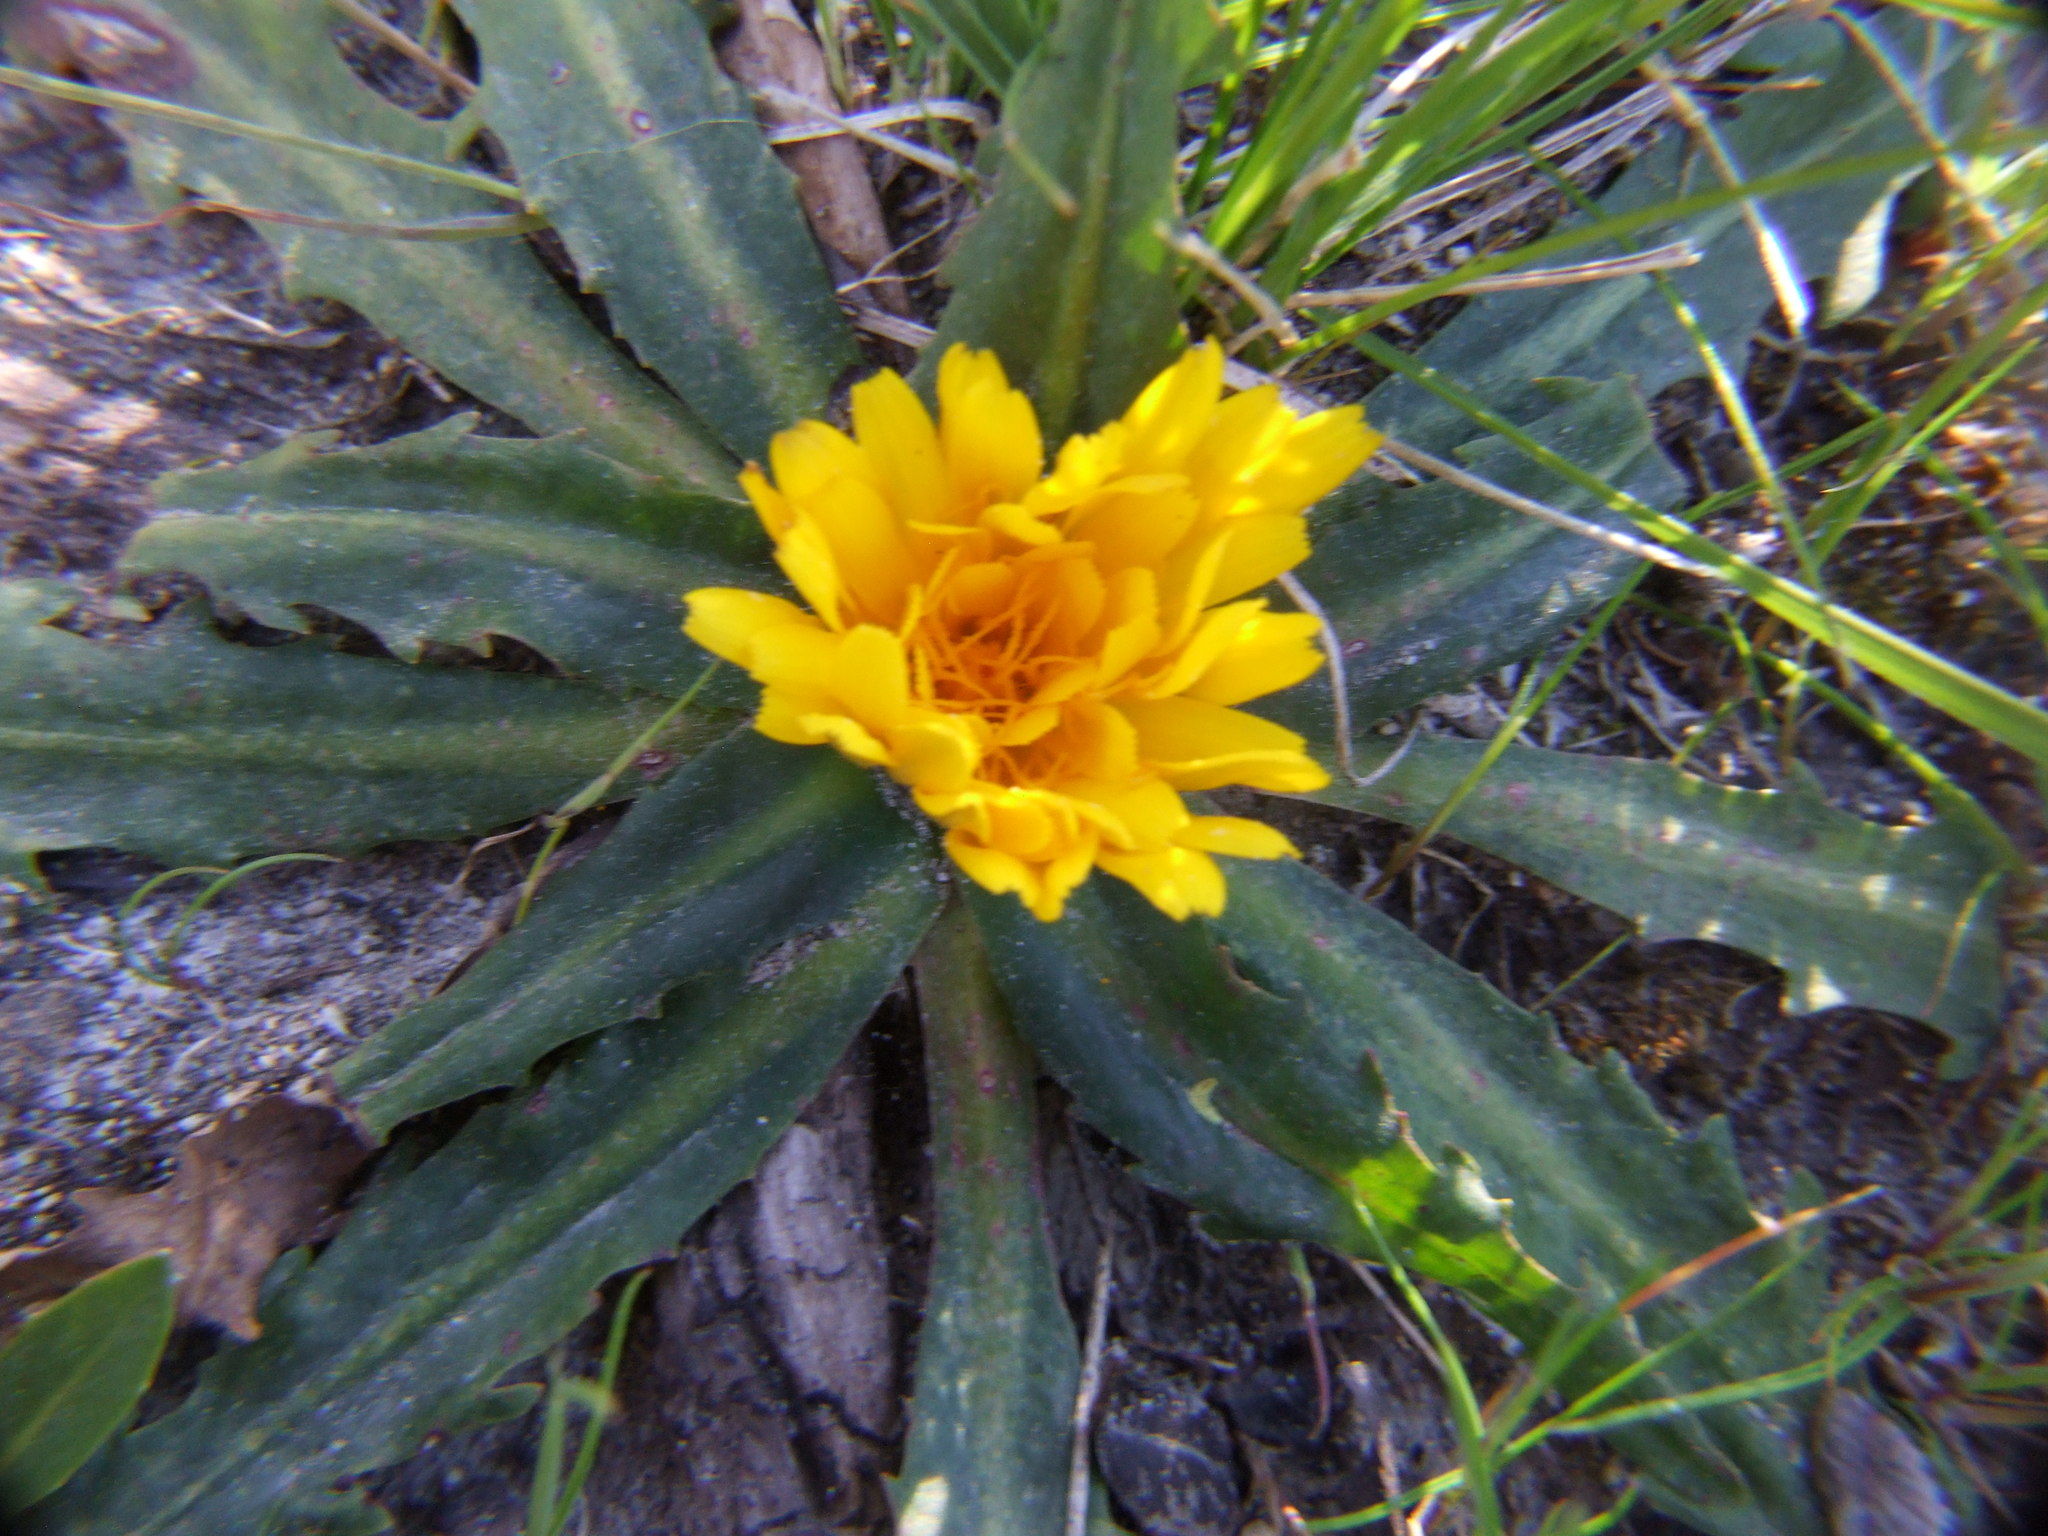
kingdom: Plantae
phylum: Tracheophyta
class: Magnoliopsida
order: Asterales
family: Asteraceae
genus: Hypochaeris
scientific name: Hypochaeris meyeniana
